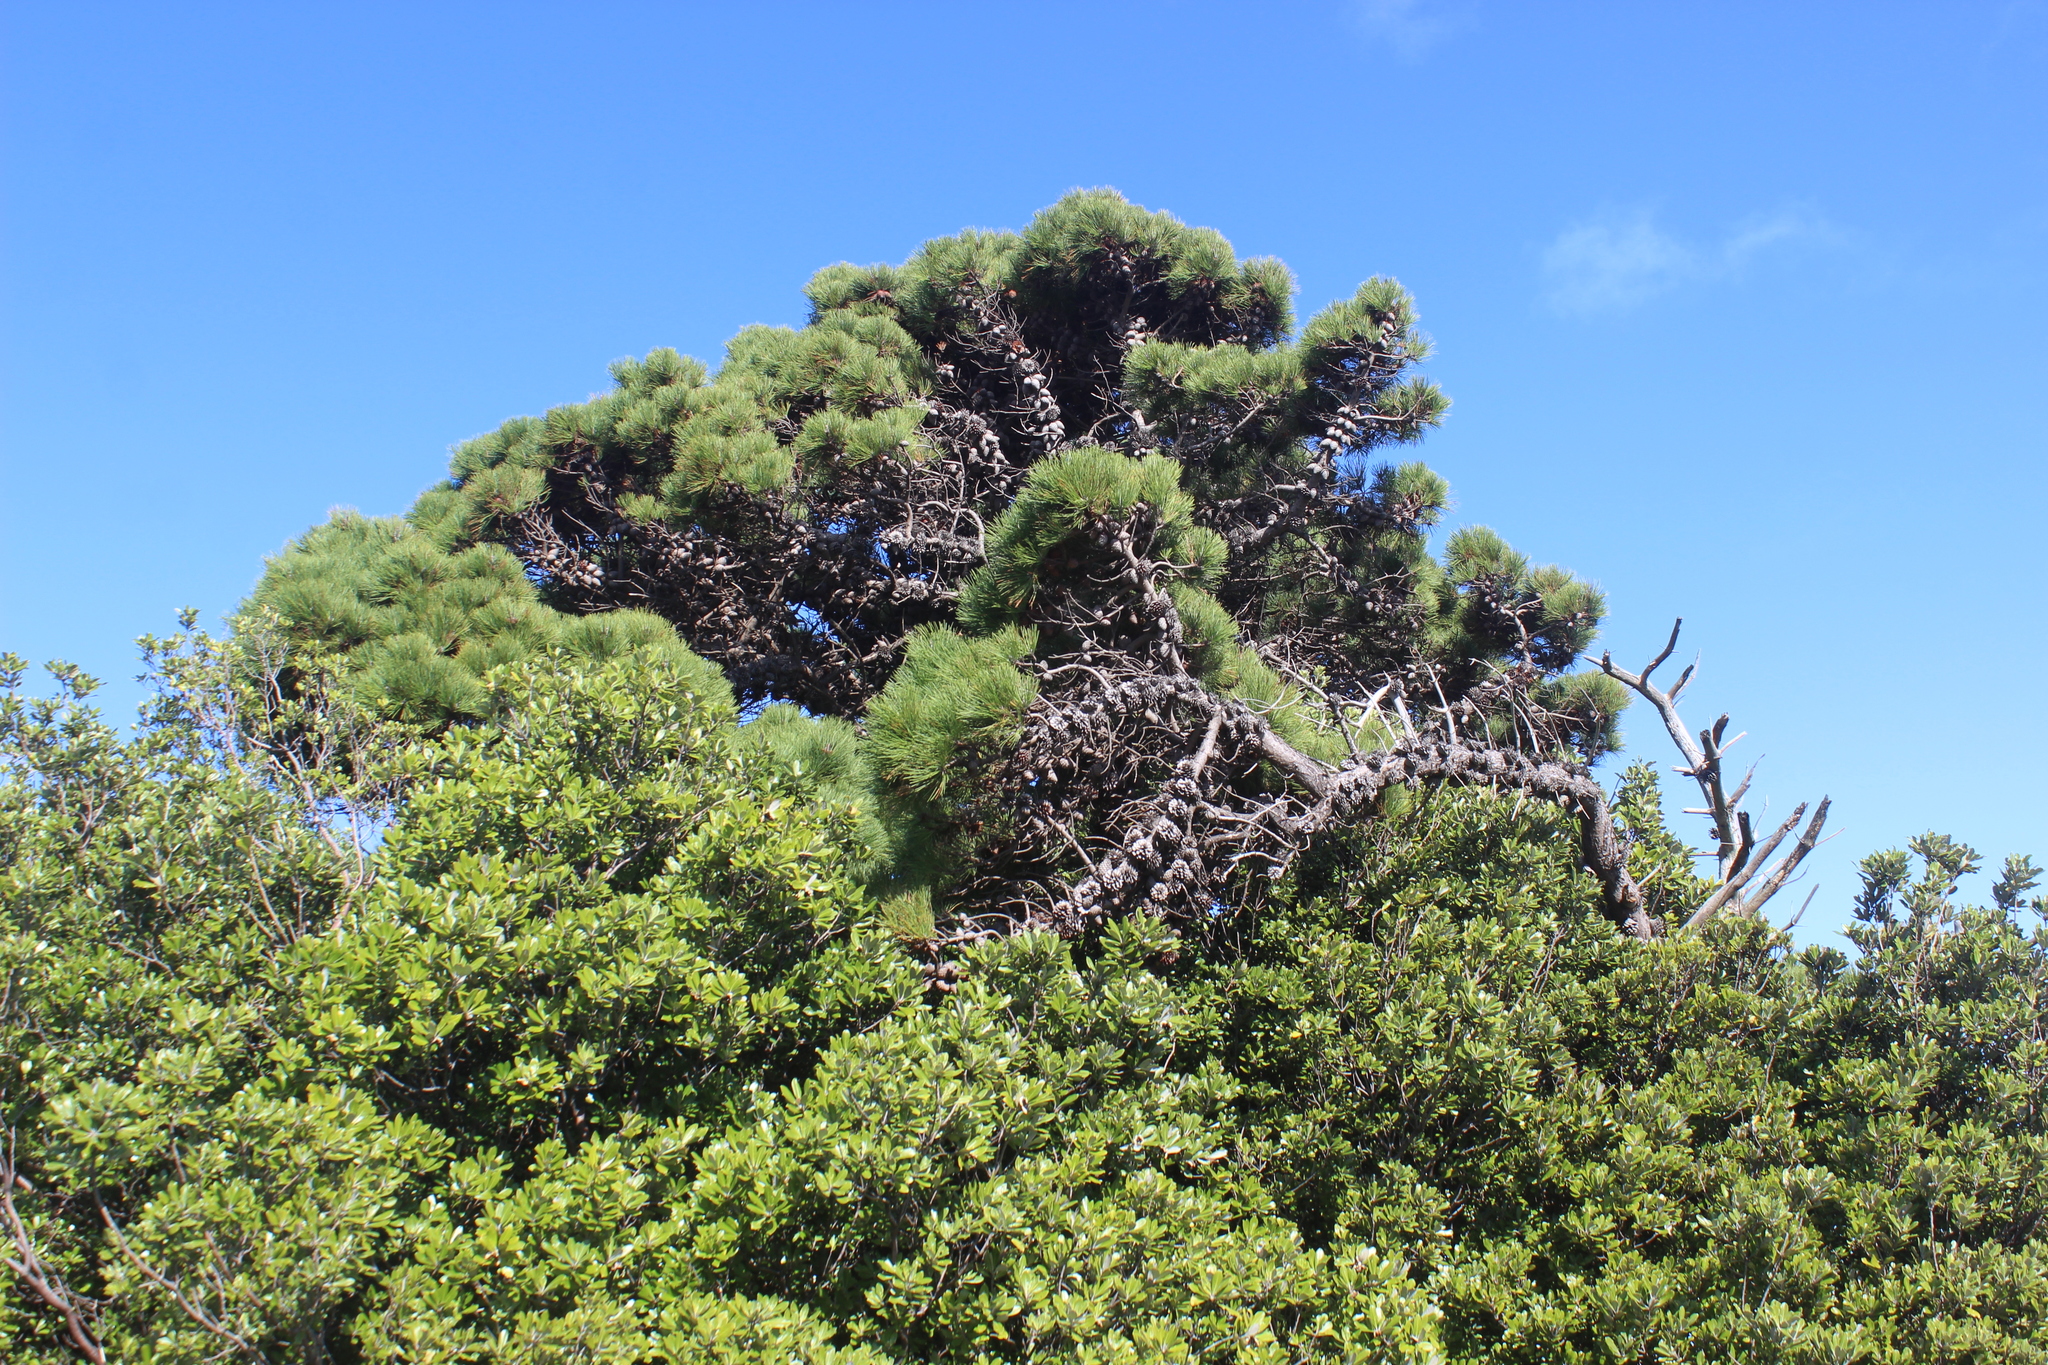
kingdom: Plantae
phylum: Tracheophyta
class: Pinopsida
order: Pinales
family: Pinaceae
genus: Pinus
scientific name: Pinus radiata
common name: Monterey pine
